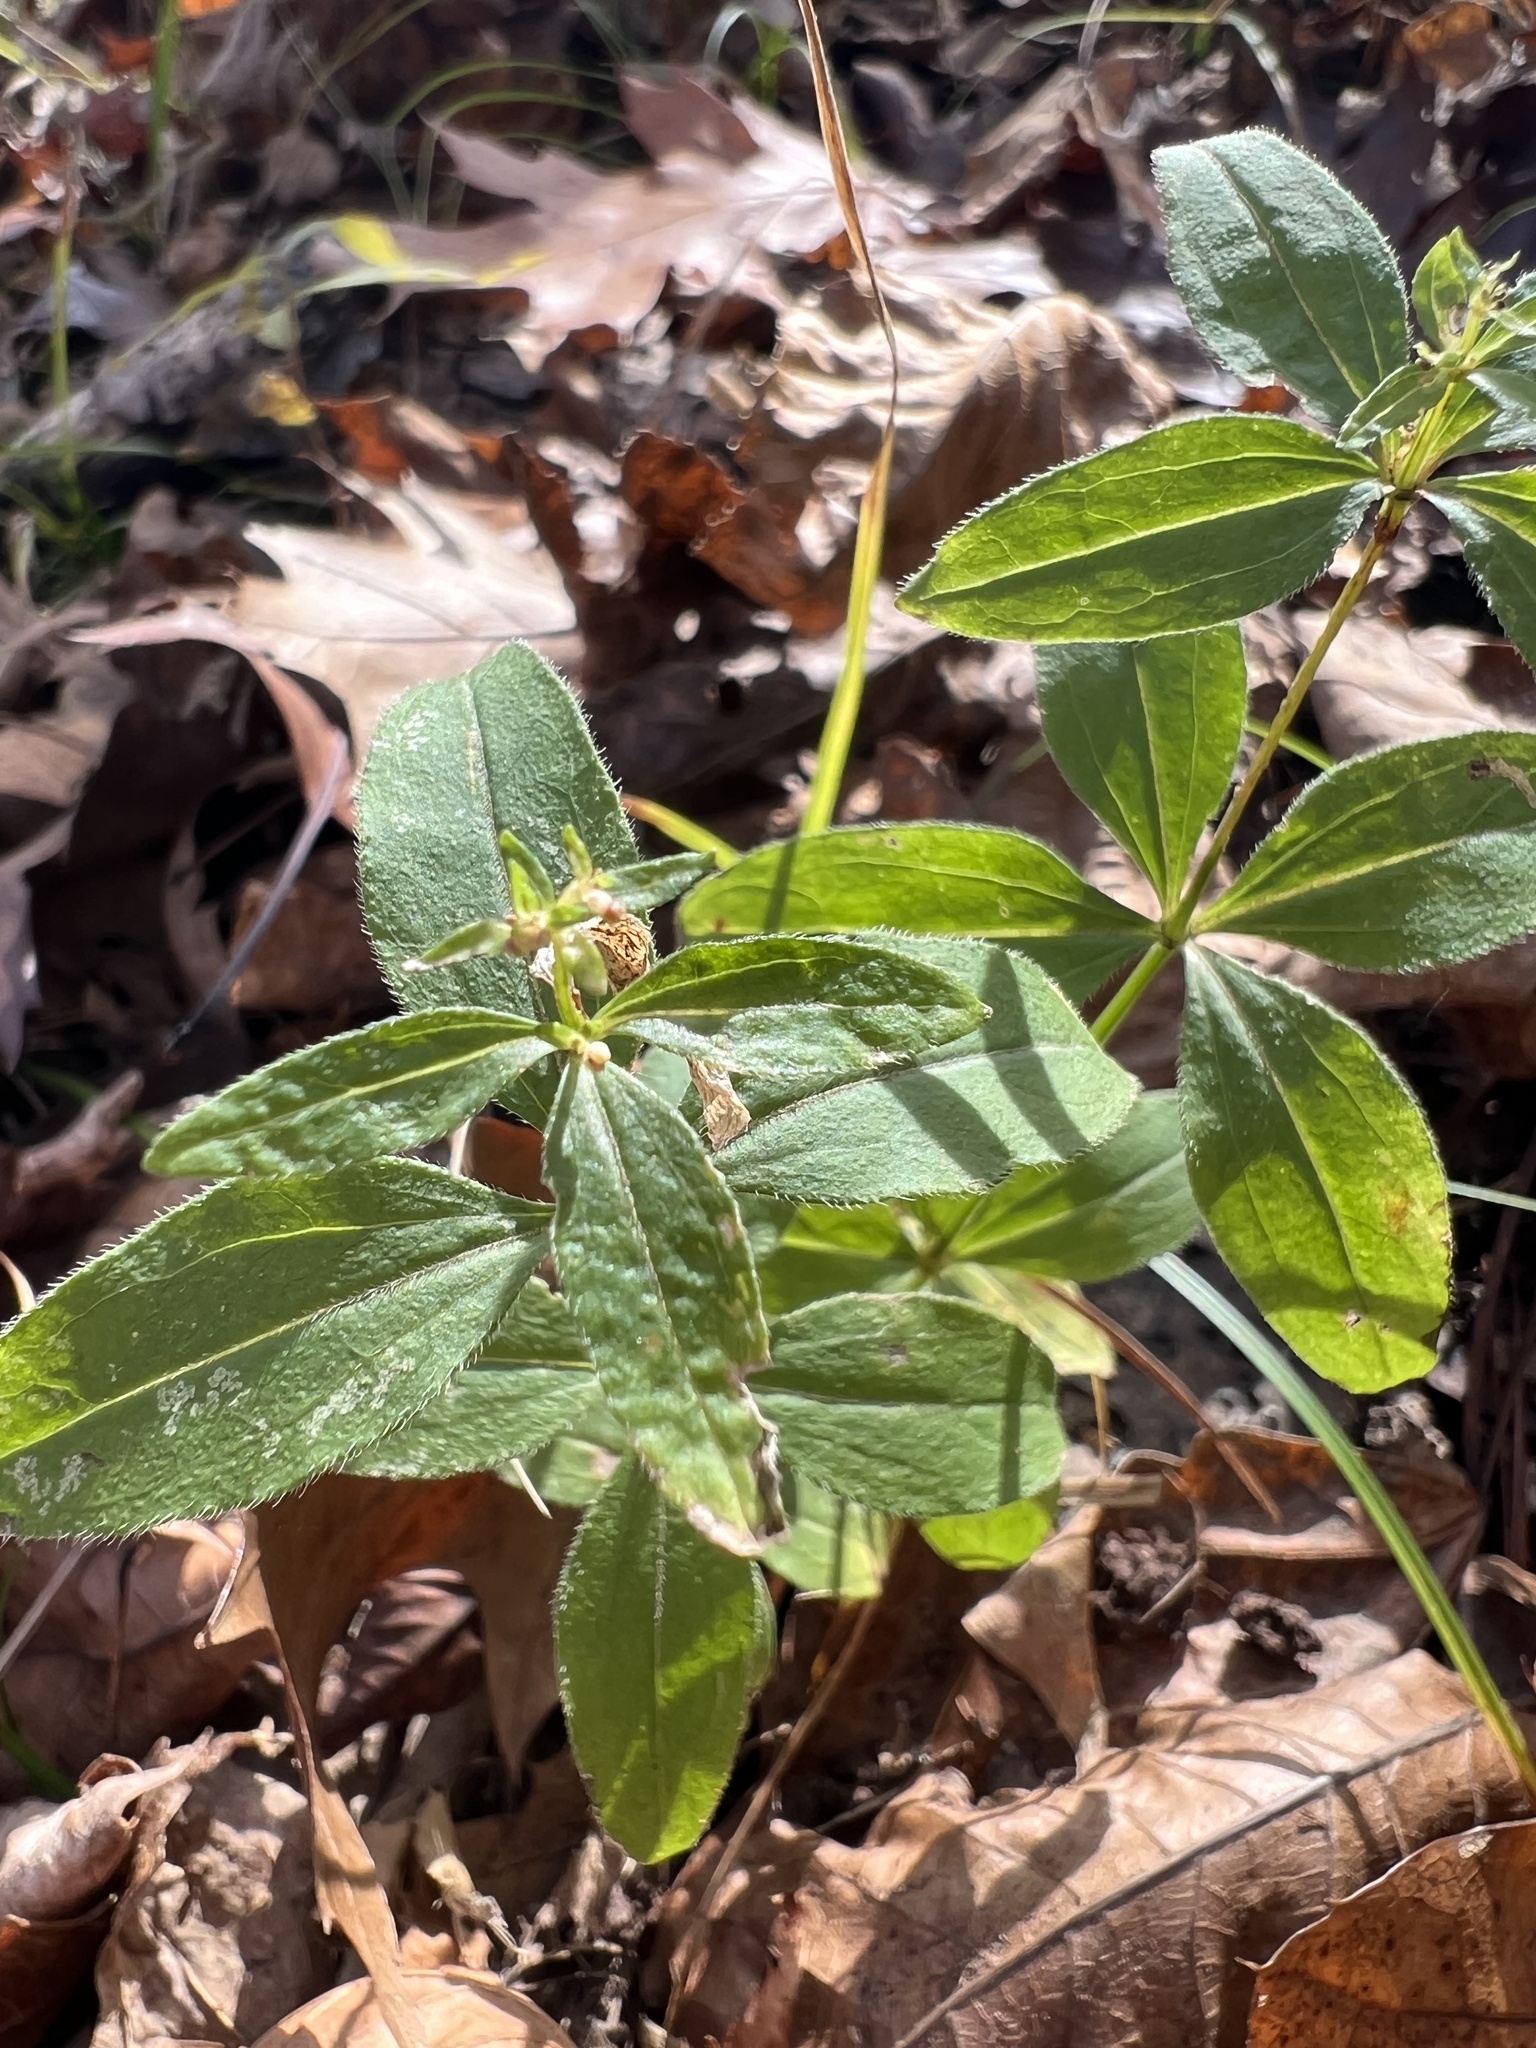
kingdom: Plantae
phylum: Tracheophyta
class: Magnoliopsida
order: Gentianales
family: Rubiaceae
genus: Galium
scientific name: Galium circaezans
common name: Forest bedstraw
